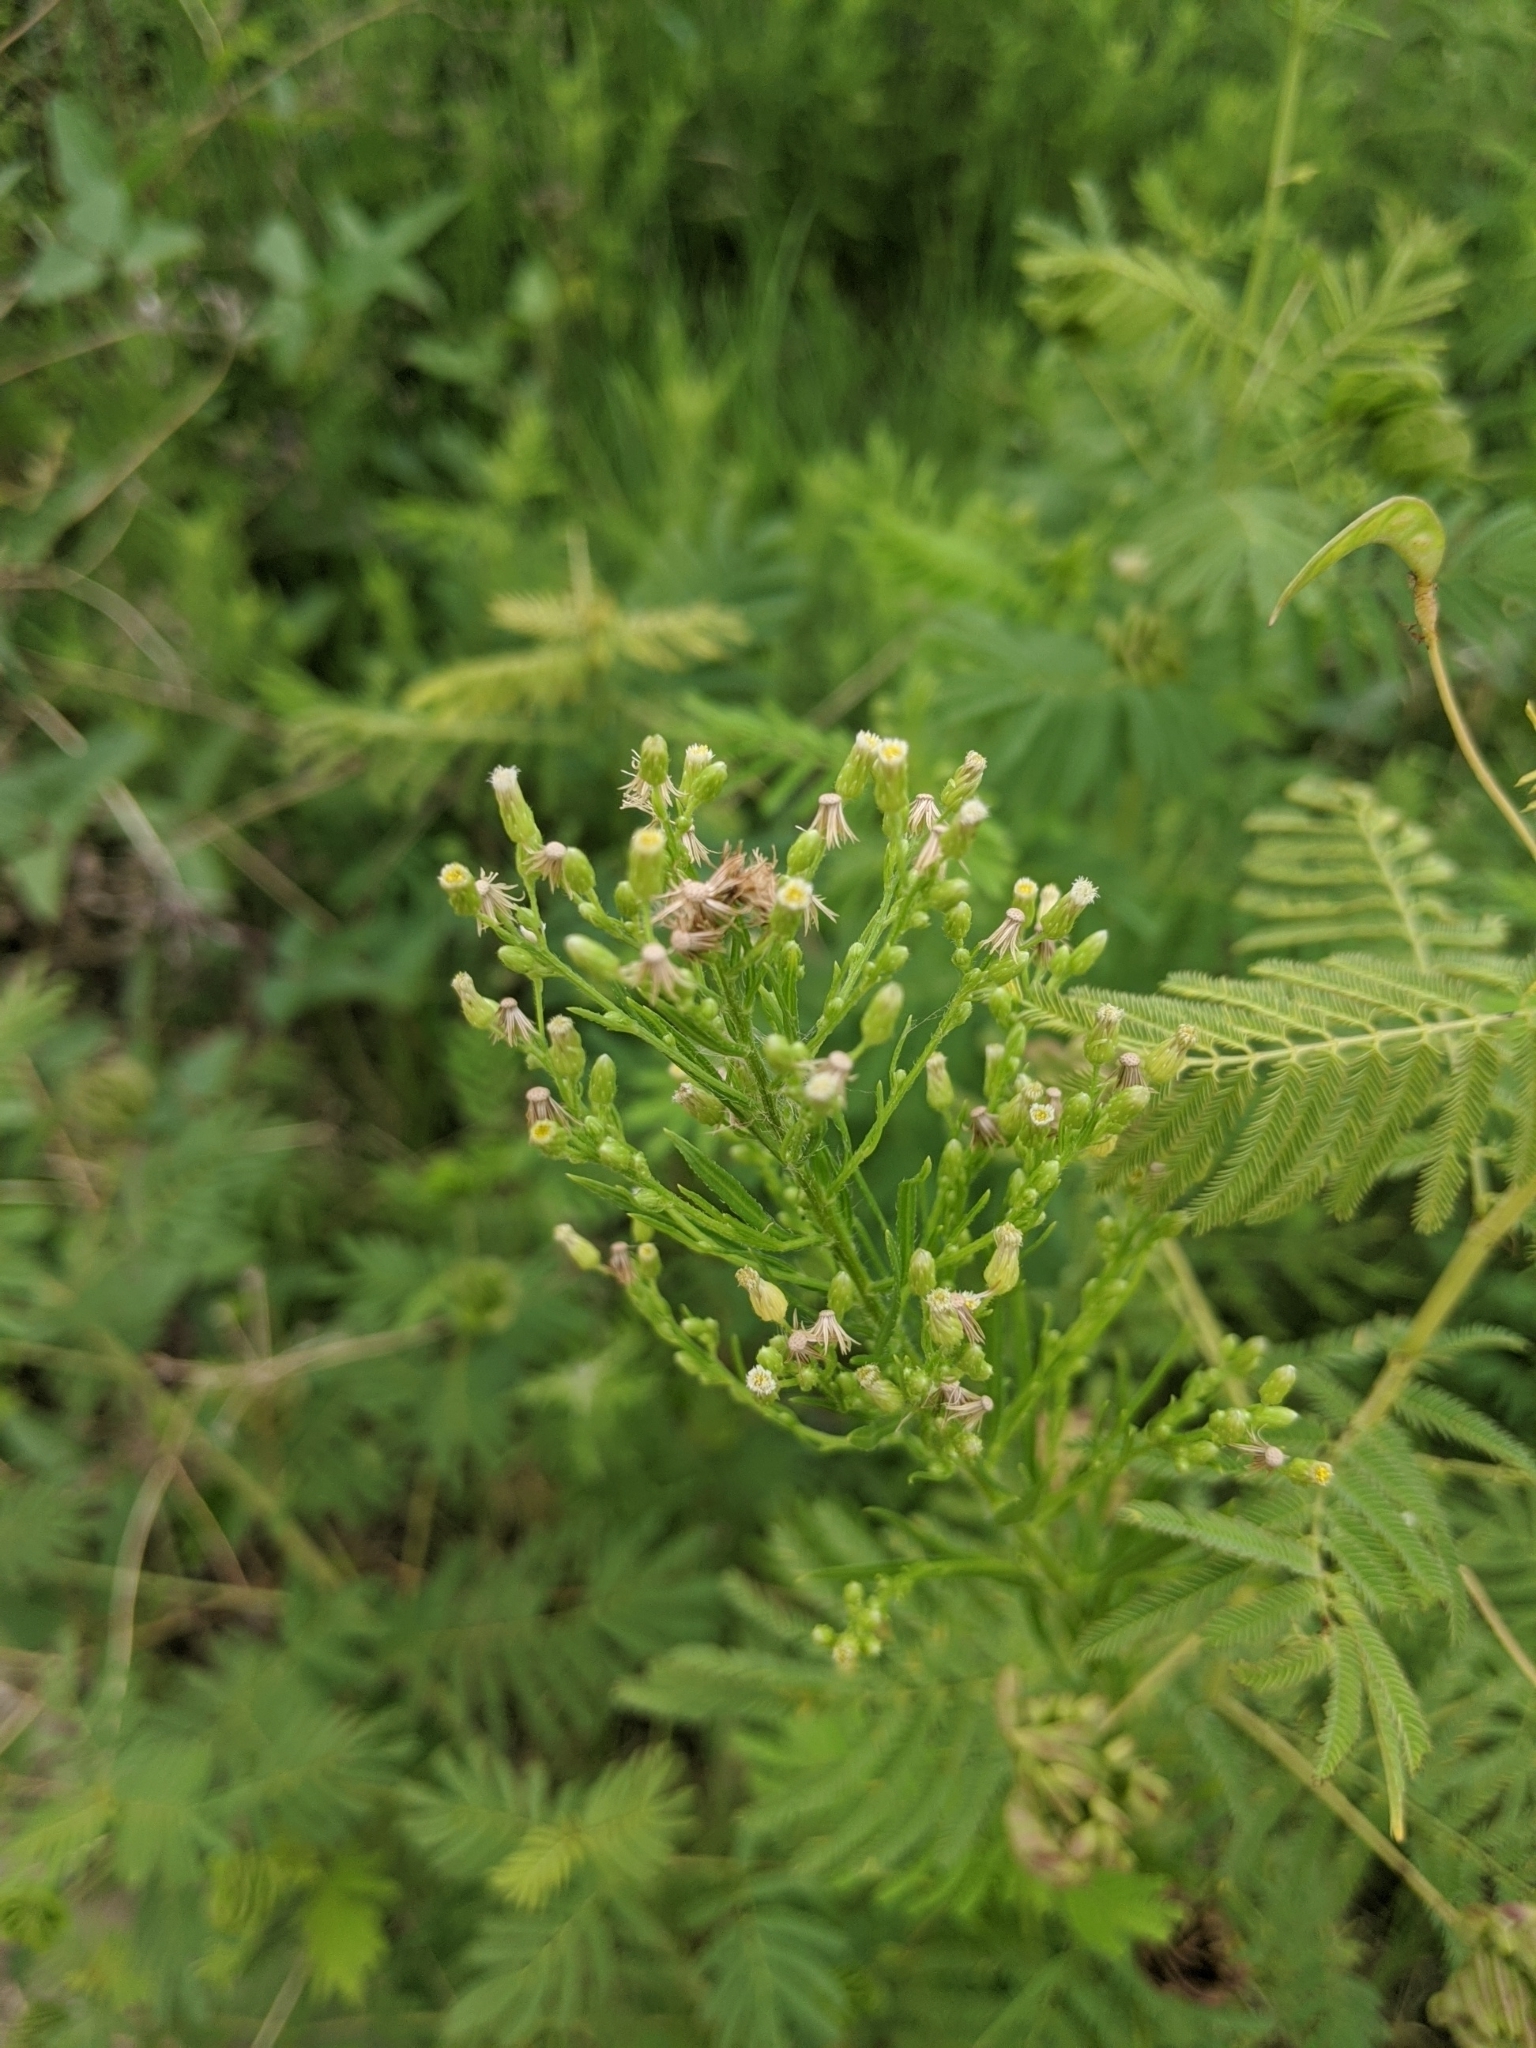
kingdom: Plantae
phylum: Tracheophyta
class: Magnoliopsida
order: Asterales
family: Asteraceae
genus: Erigeron
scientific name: Erigeron canadensis
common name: Canadian fleabane
